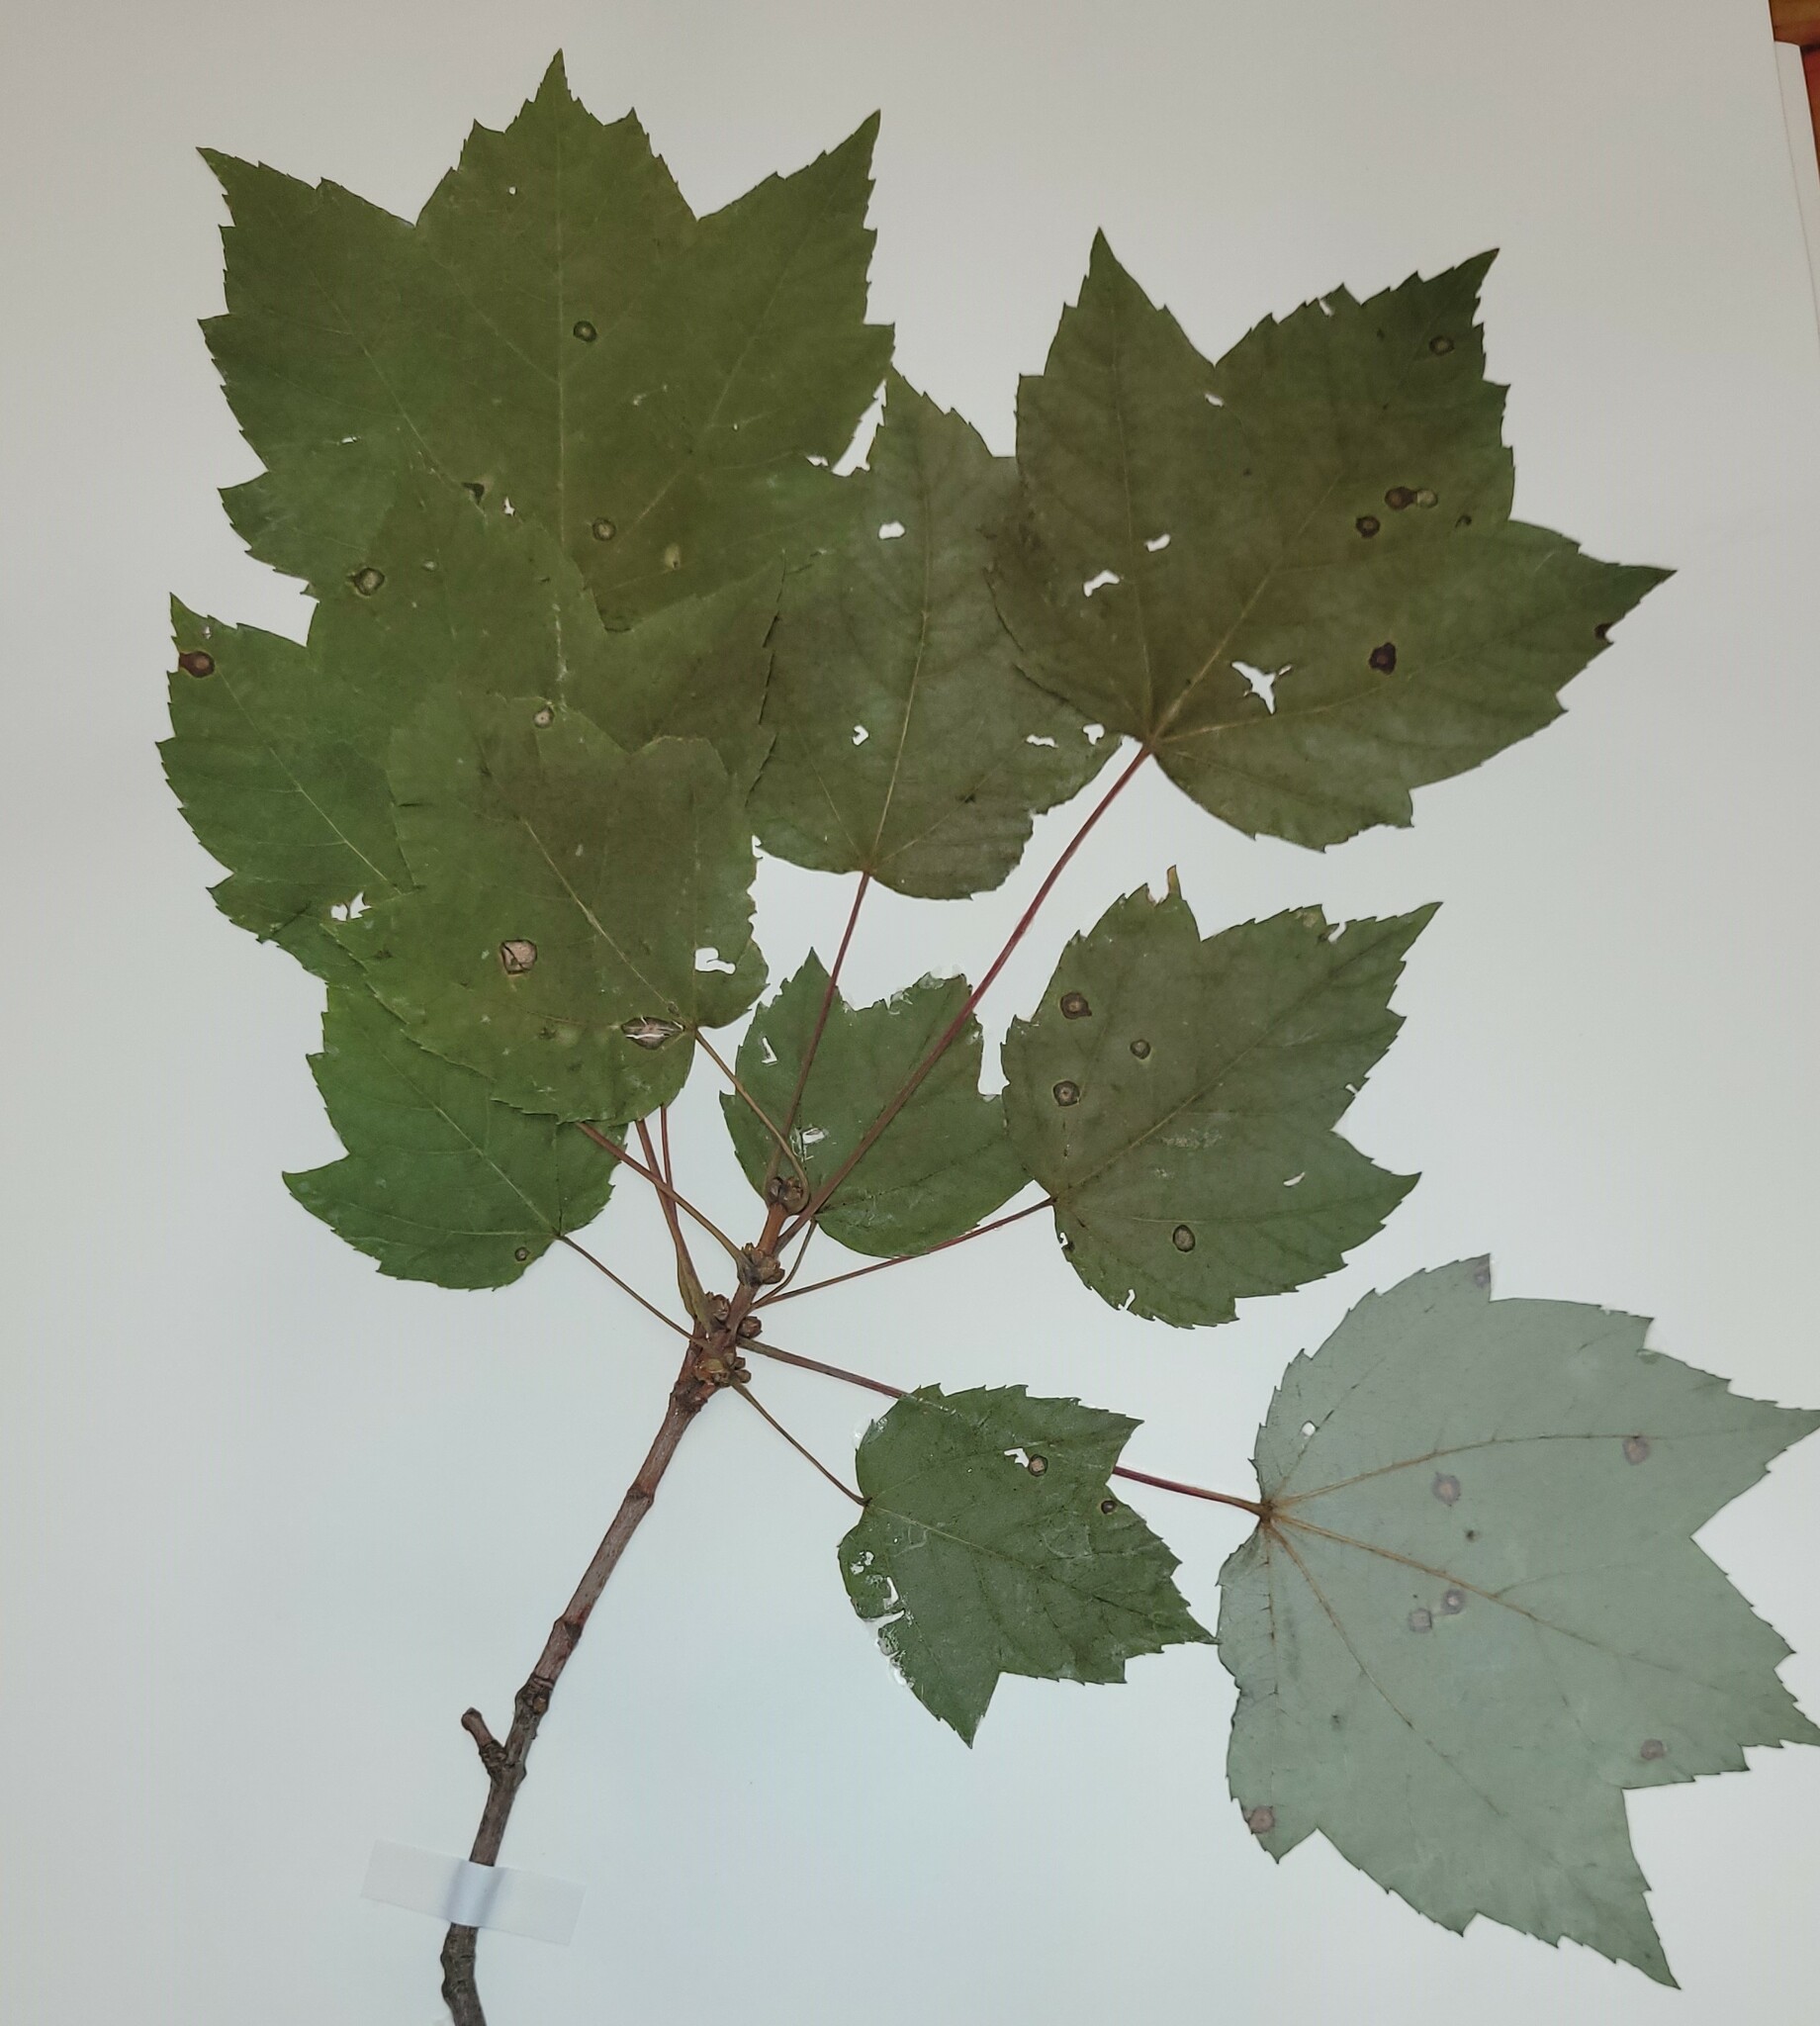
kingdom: Plantae
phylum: Tracheophyta
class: Magnoliopsida
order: Sapindales
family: Sapindaceae
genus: Acer
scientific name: Acer rubrum
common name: Red maple
